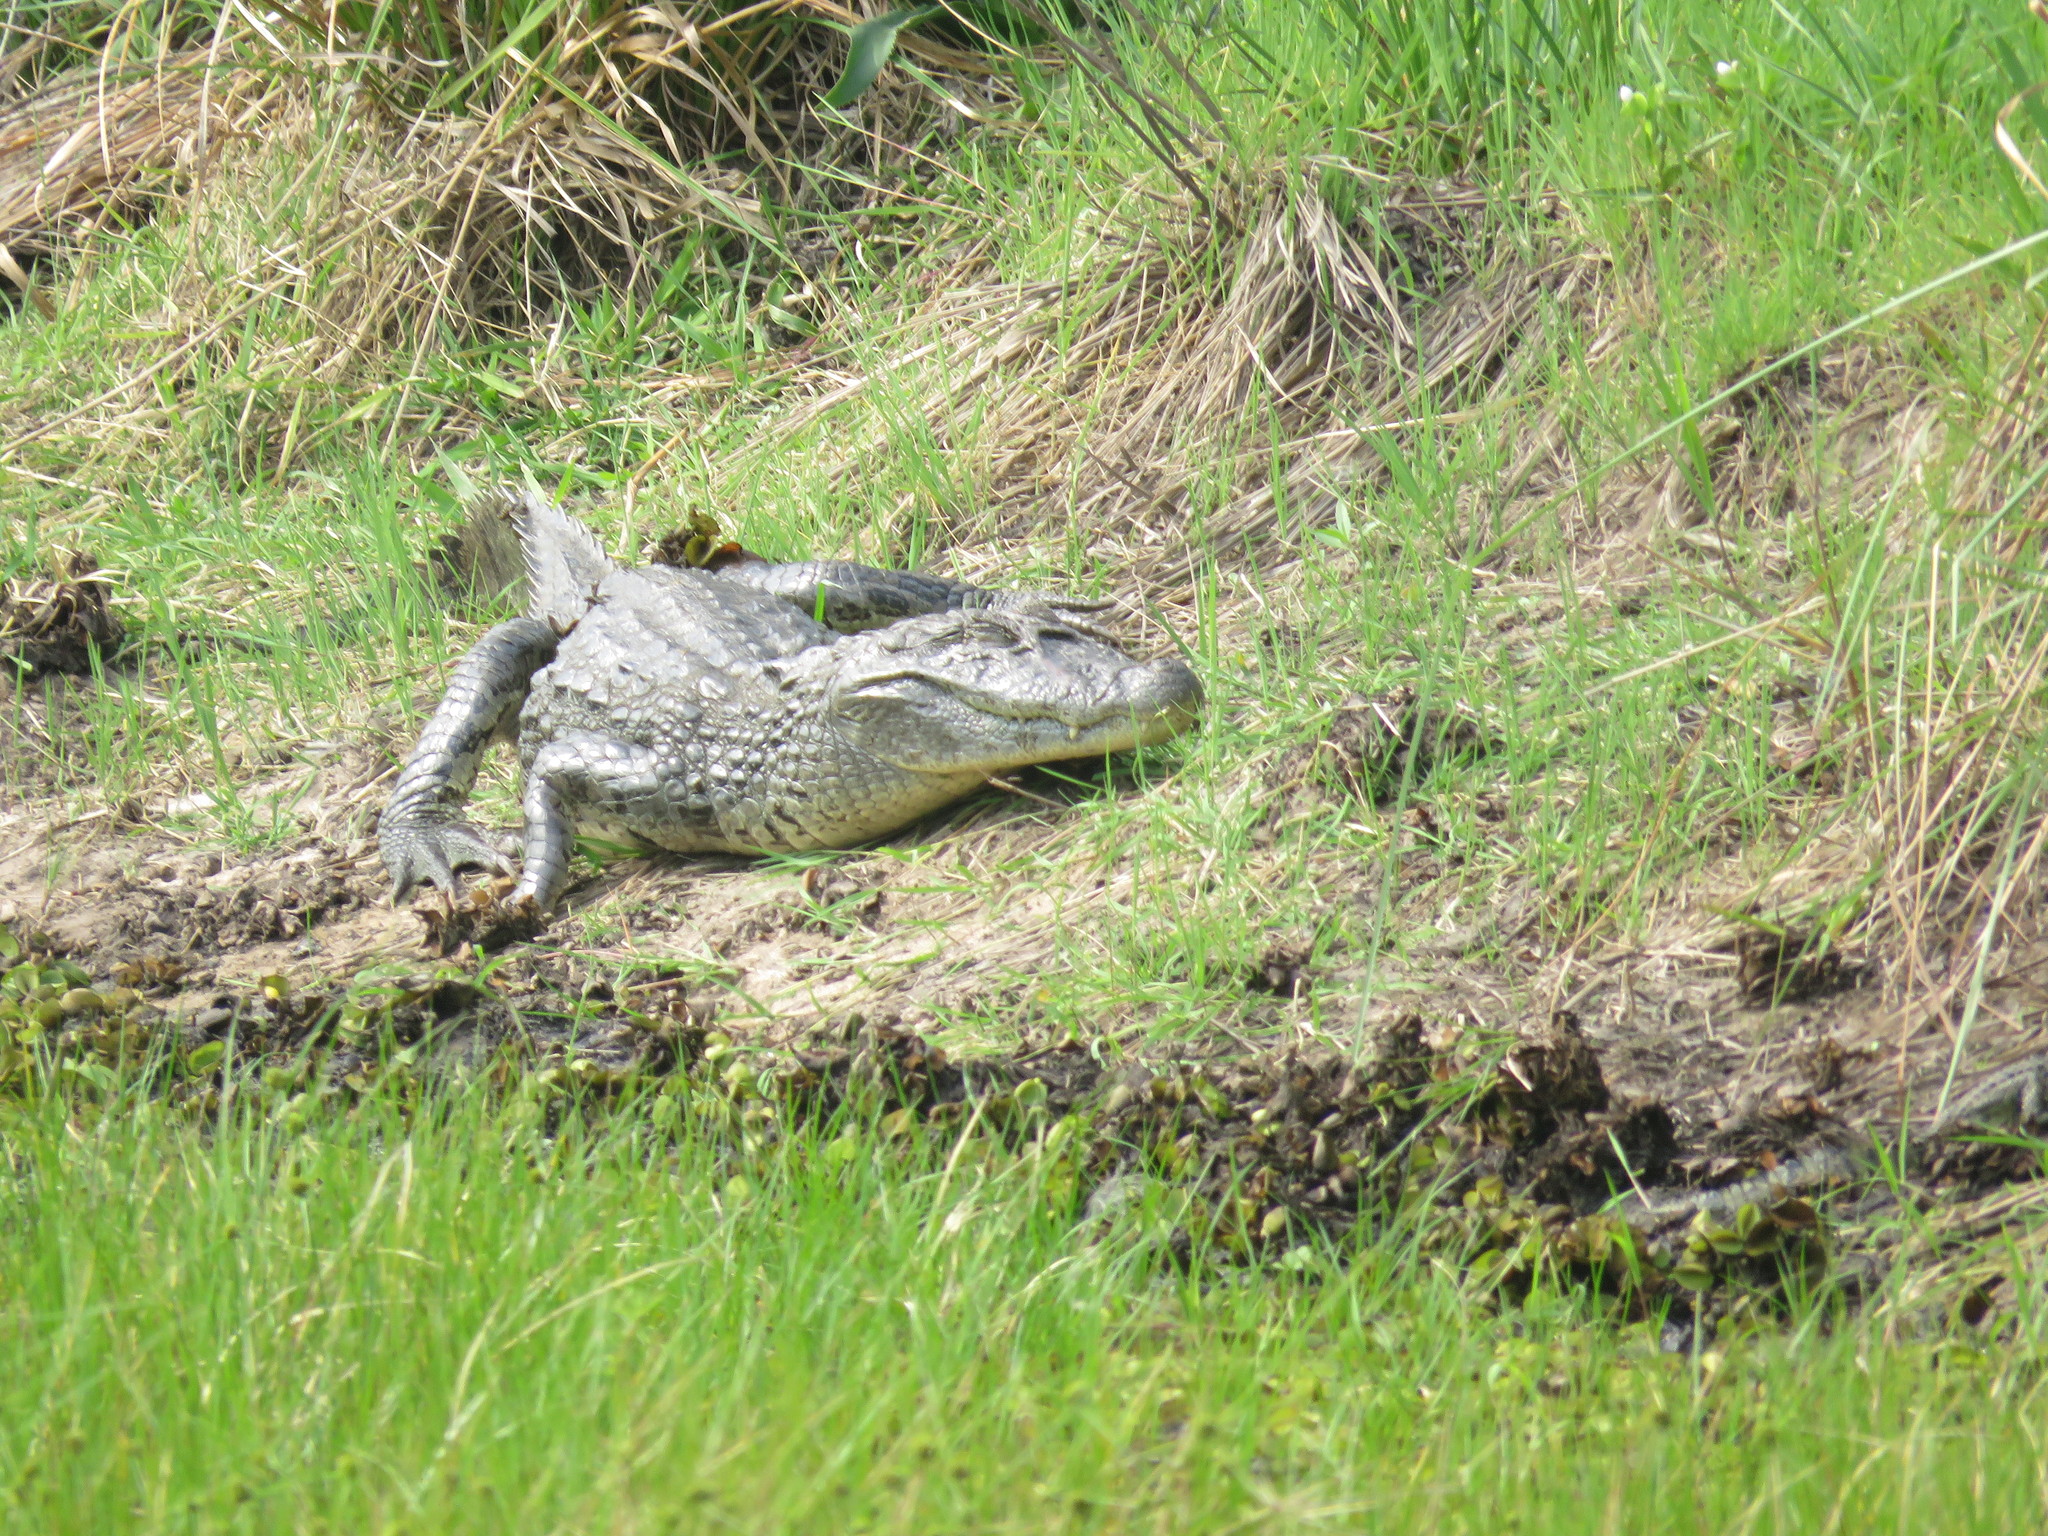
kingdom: Animalia
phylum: Chordata
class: Crocodylia
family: Alligatoridae
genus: Caiman
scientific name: Caiman latirostris
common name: Broad-snouted caiman
